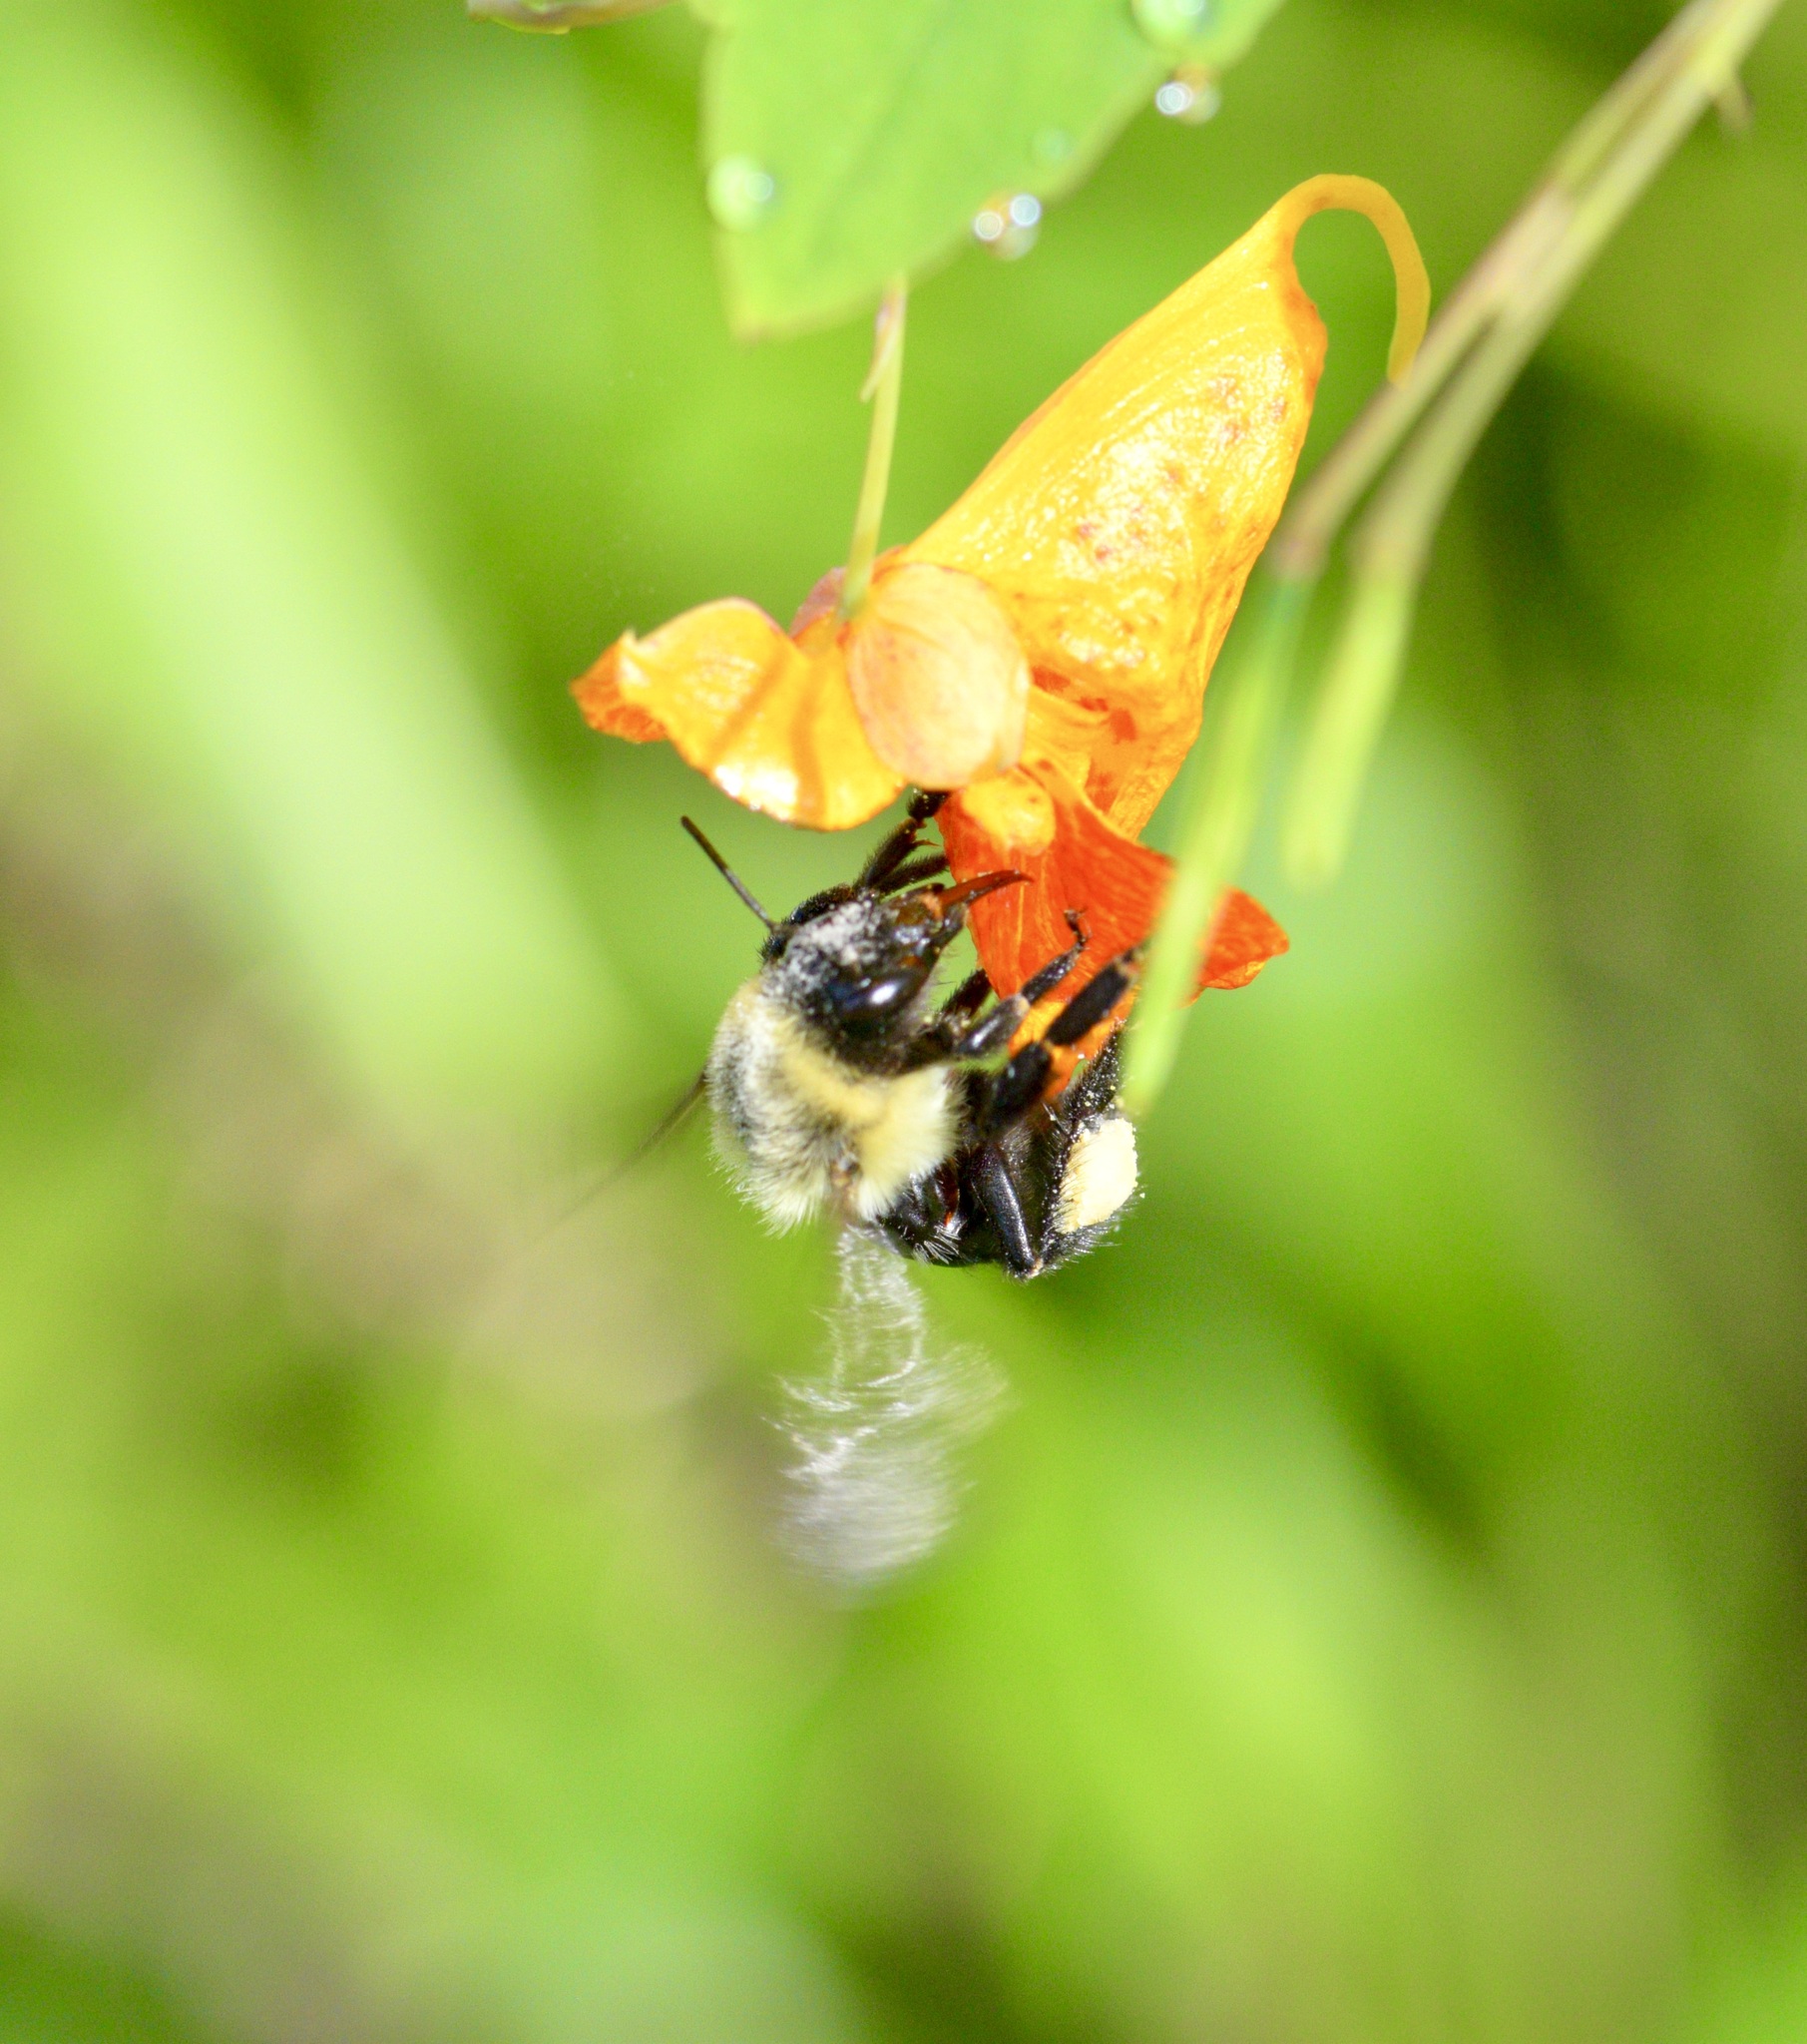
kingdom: Animalia
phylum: Arthropoda
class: Insecta
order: Hymenoptera
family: Apidae
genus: Bombus
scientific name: Bombus impatiens
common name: Common eastern bumble bee
